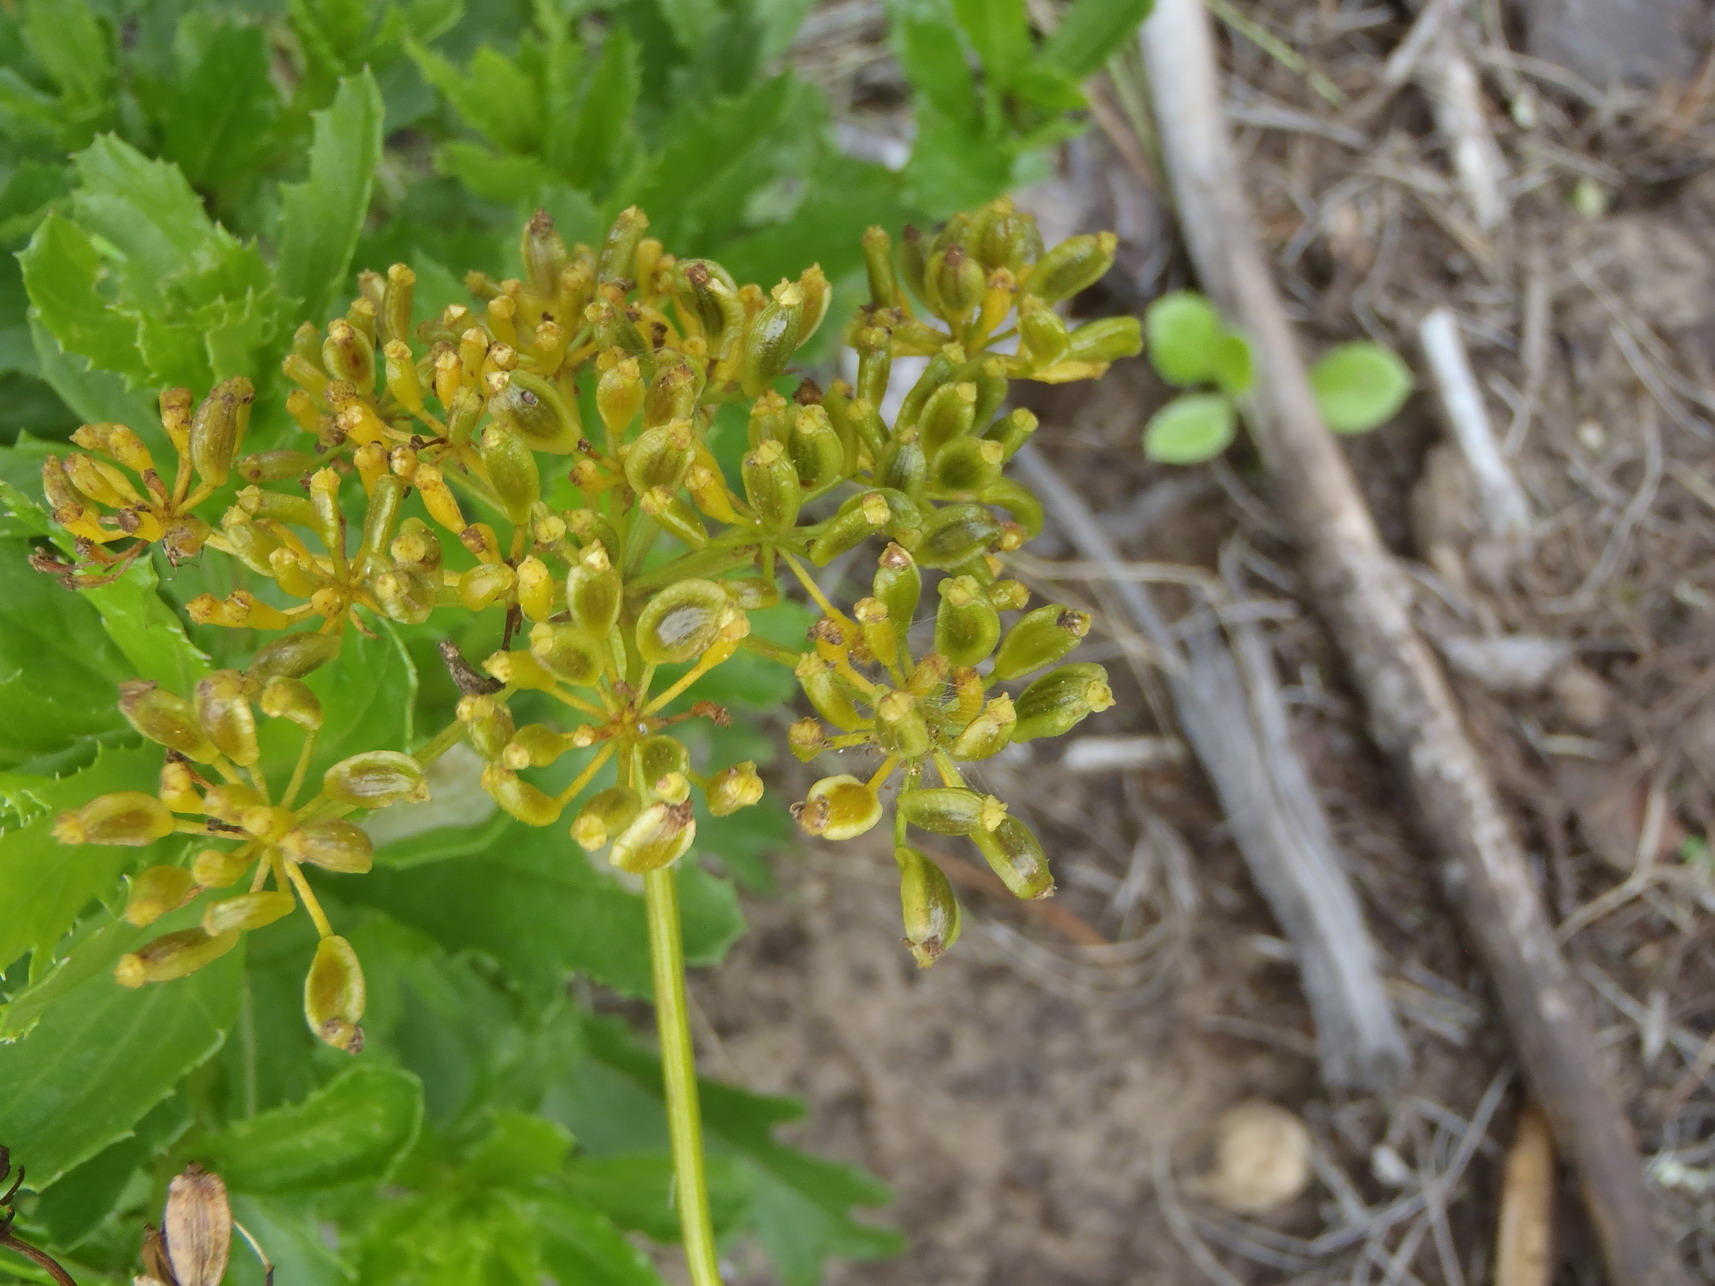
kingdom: Plantae
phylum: Tracheophyta
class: Magnoliopsida
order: Apiales
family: Apiaceae
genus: Notobubon
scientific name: Notobubon ferulaceum
